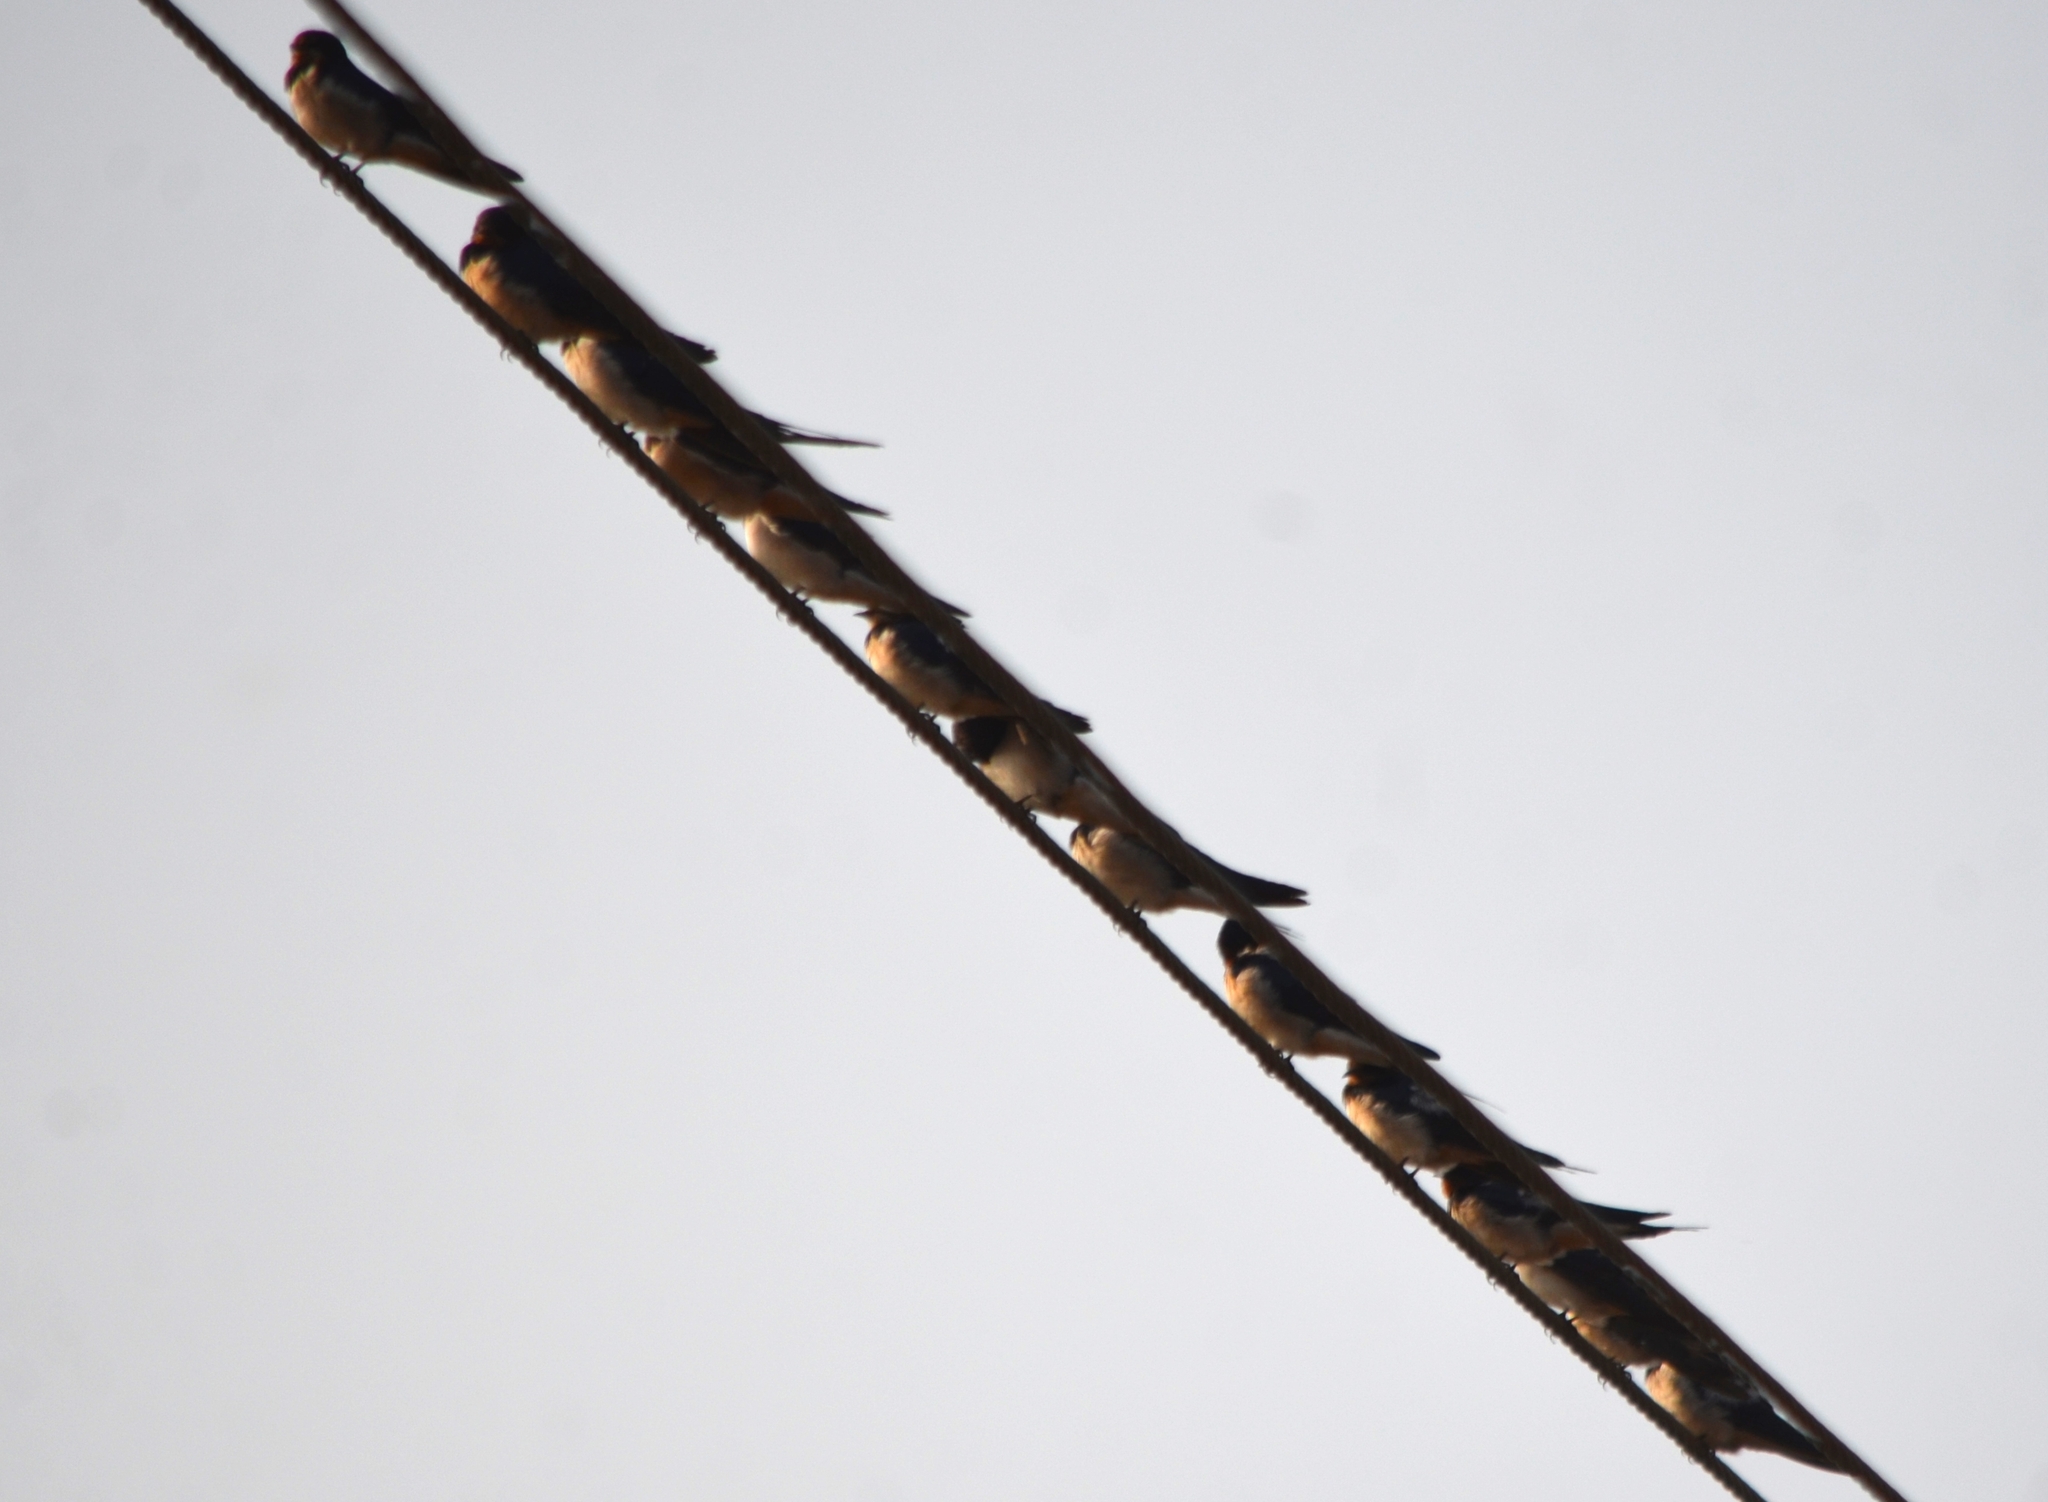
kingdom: Animalia
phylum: Chordata
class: Aves
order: Passeriformes
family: Hirundinidae
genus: Hirundo
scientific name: Hirundo rustica
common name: Barn swallow
